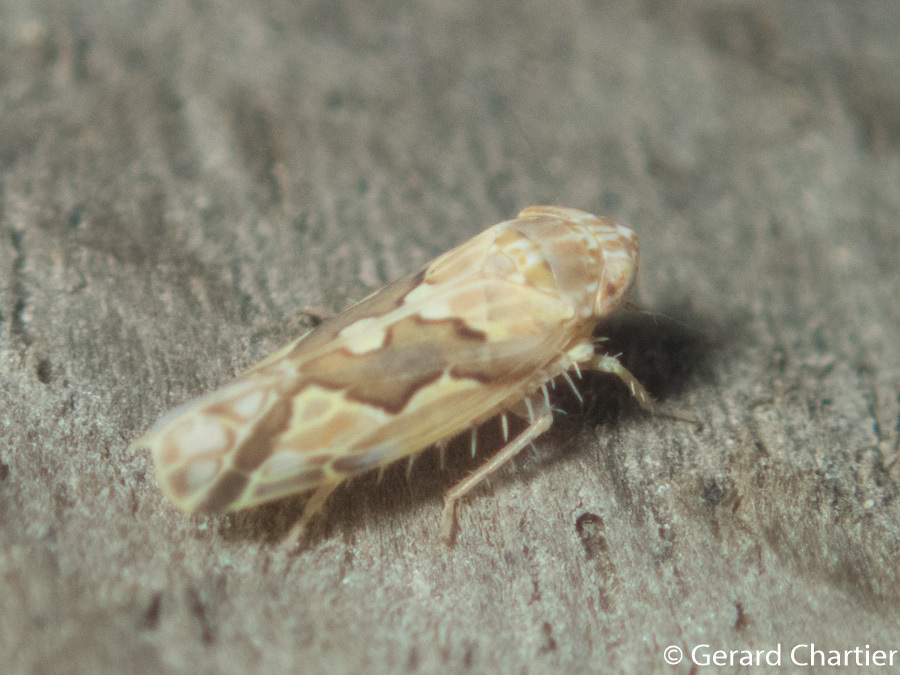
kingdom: Animalia
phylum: Arthropoda
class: Insecta
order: Hemiptera
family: Cicadellidae
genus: Maiestas
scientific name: Maiestas dorsalis
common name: Zig-zag leafhopper
